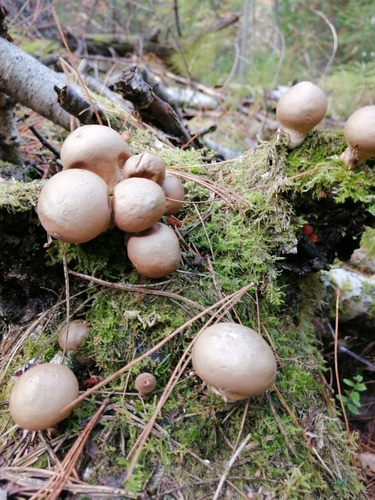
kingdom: Fungi
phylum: Basidiomycota
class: Agaricomycetes
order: Agaricales
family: Lycoperdaceae
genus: Apioperdon
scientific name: Apioperdon pyriforme
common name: Pear-shaped puffball
